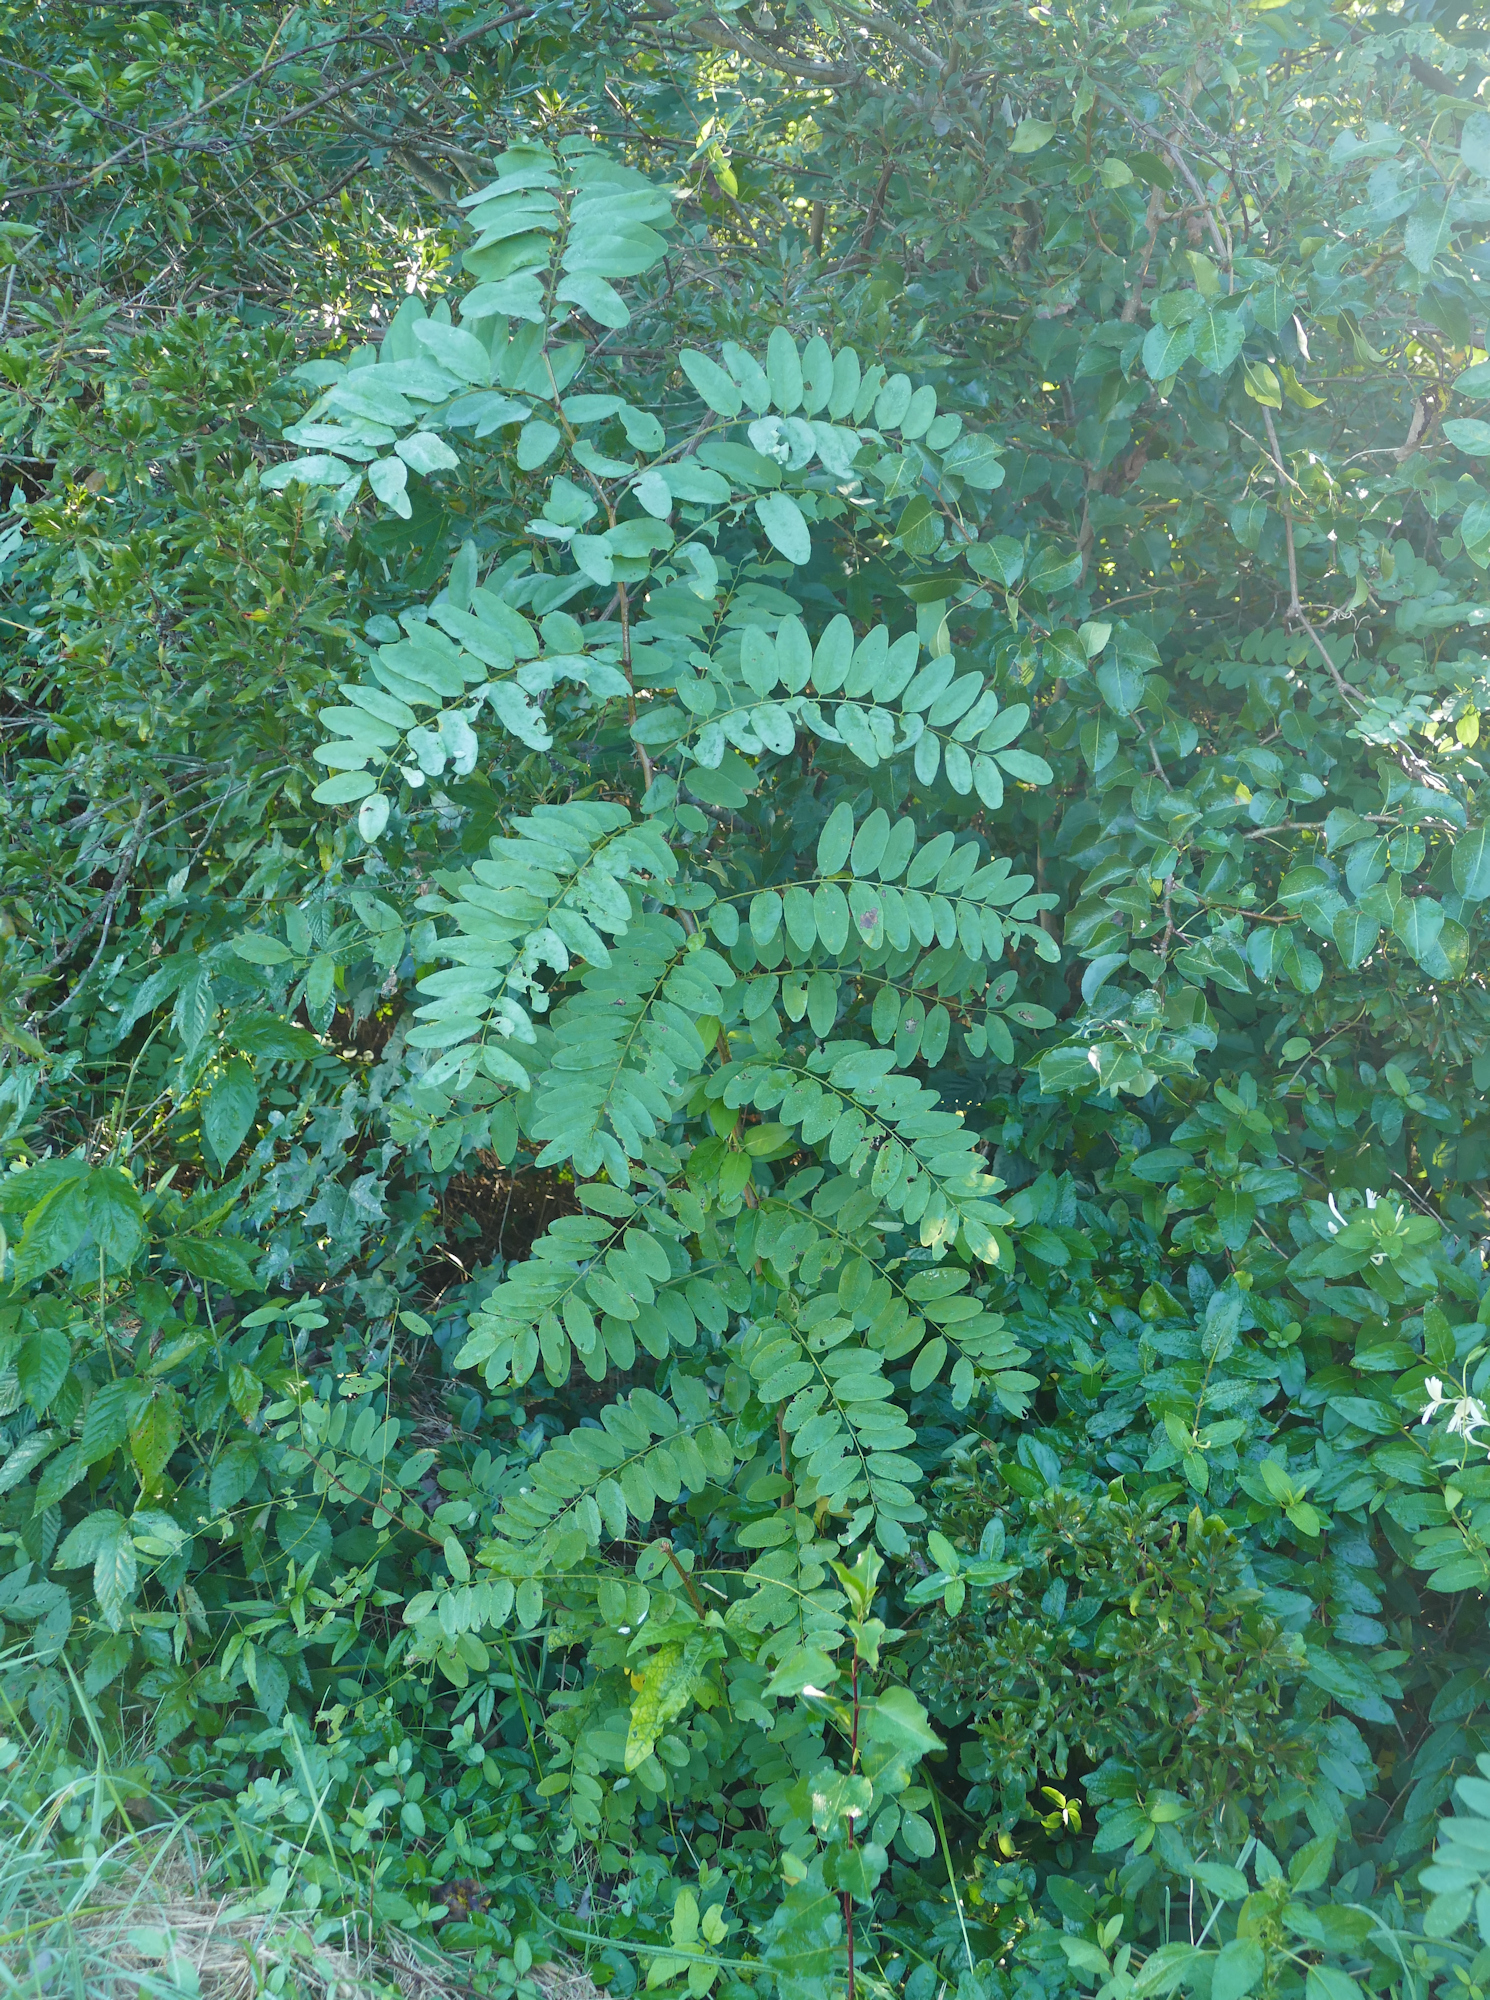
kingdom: Plantae
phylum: Tracheophyta
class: Magnoliopsida
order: Fabales
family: Fabaceae
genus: Robinia
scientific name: Robinia pseudoacacia
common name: Black locust
